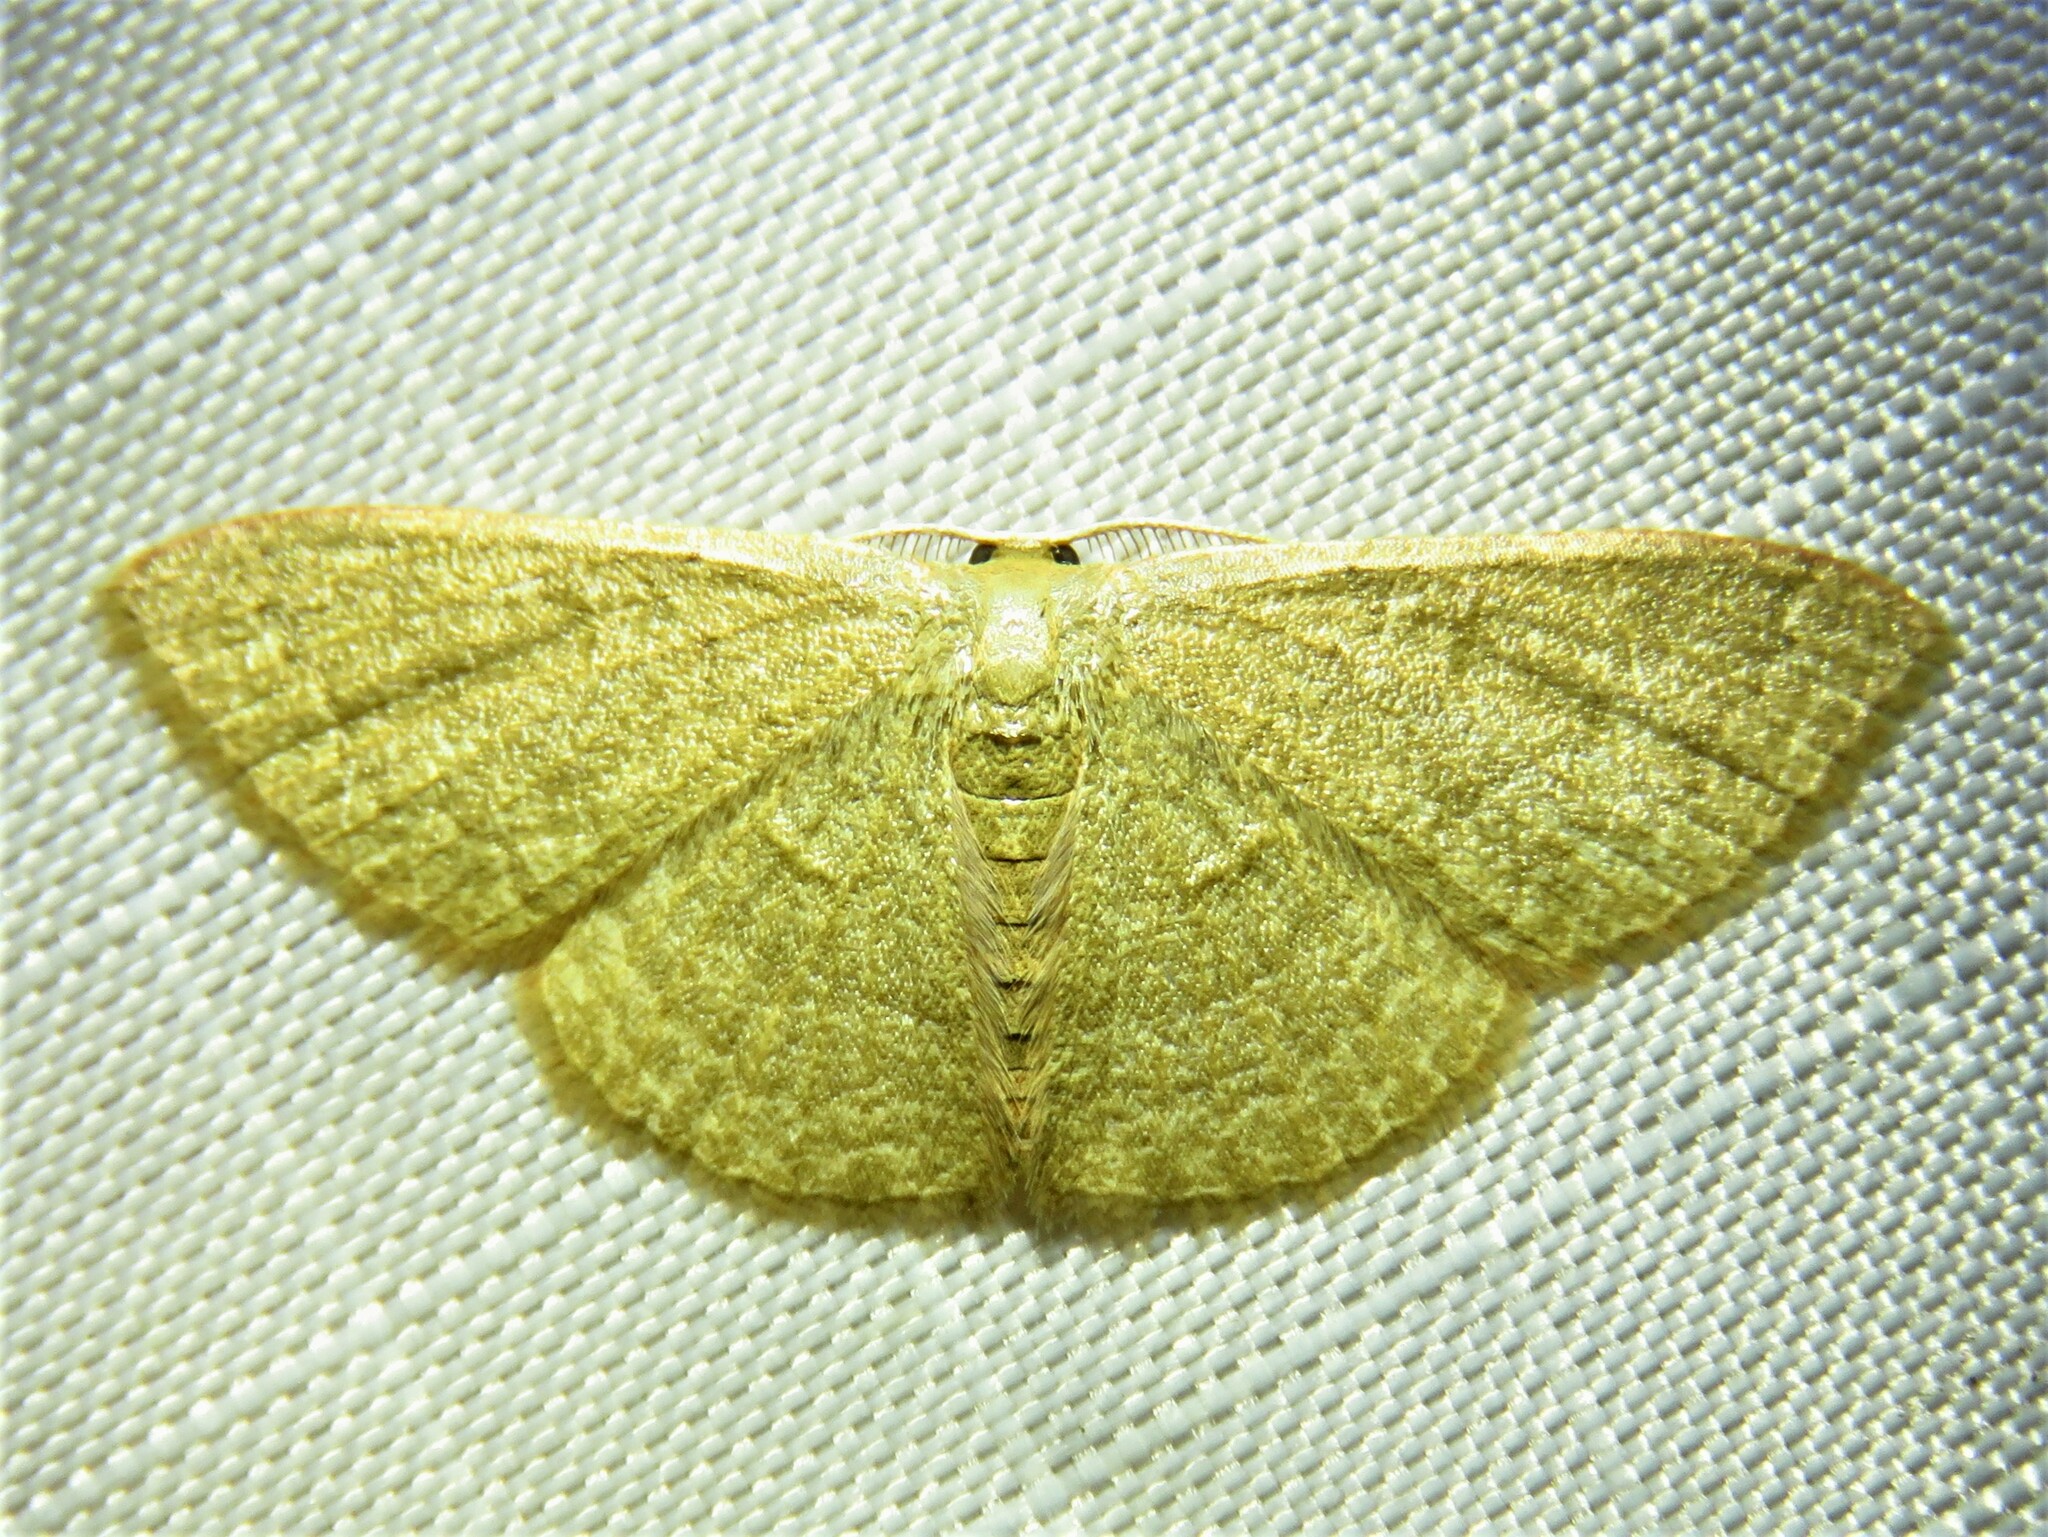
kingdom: Animalia
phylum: Arthropoda
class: Insecta
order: Lepidoptera
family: Geometridae
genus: Pleuroprucha
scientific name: Pleuroprucha insulsaria
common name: Common tan wave
